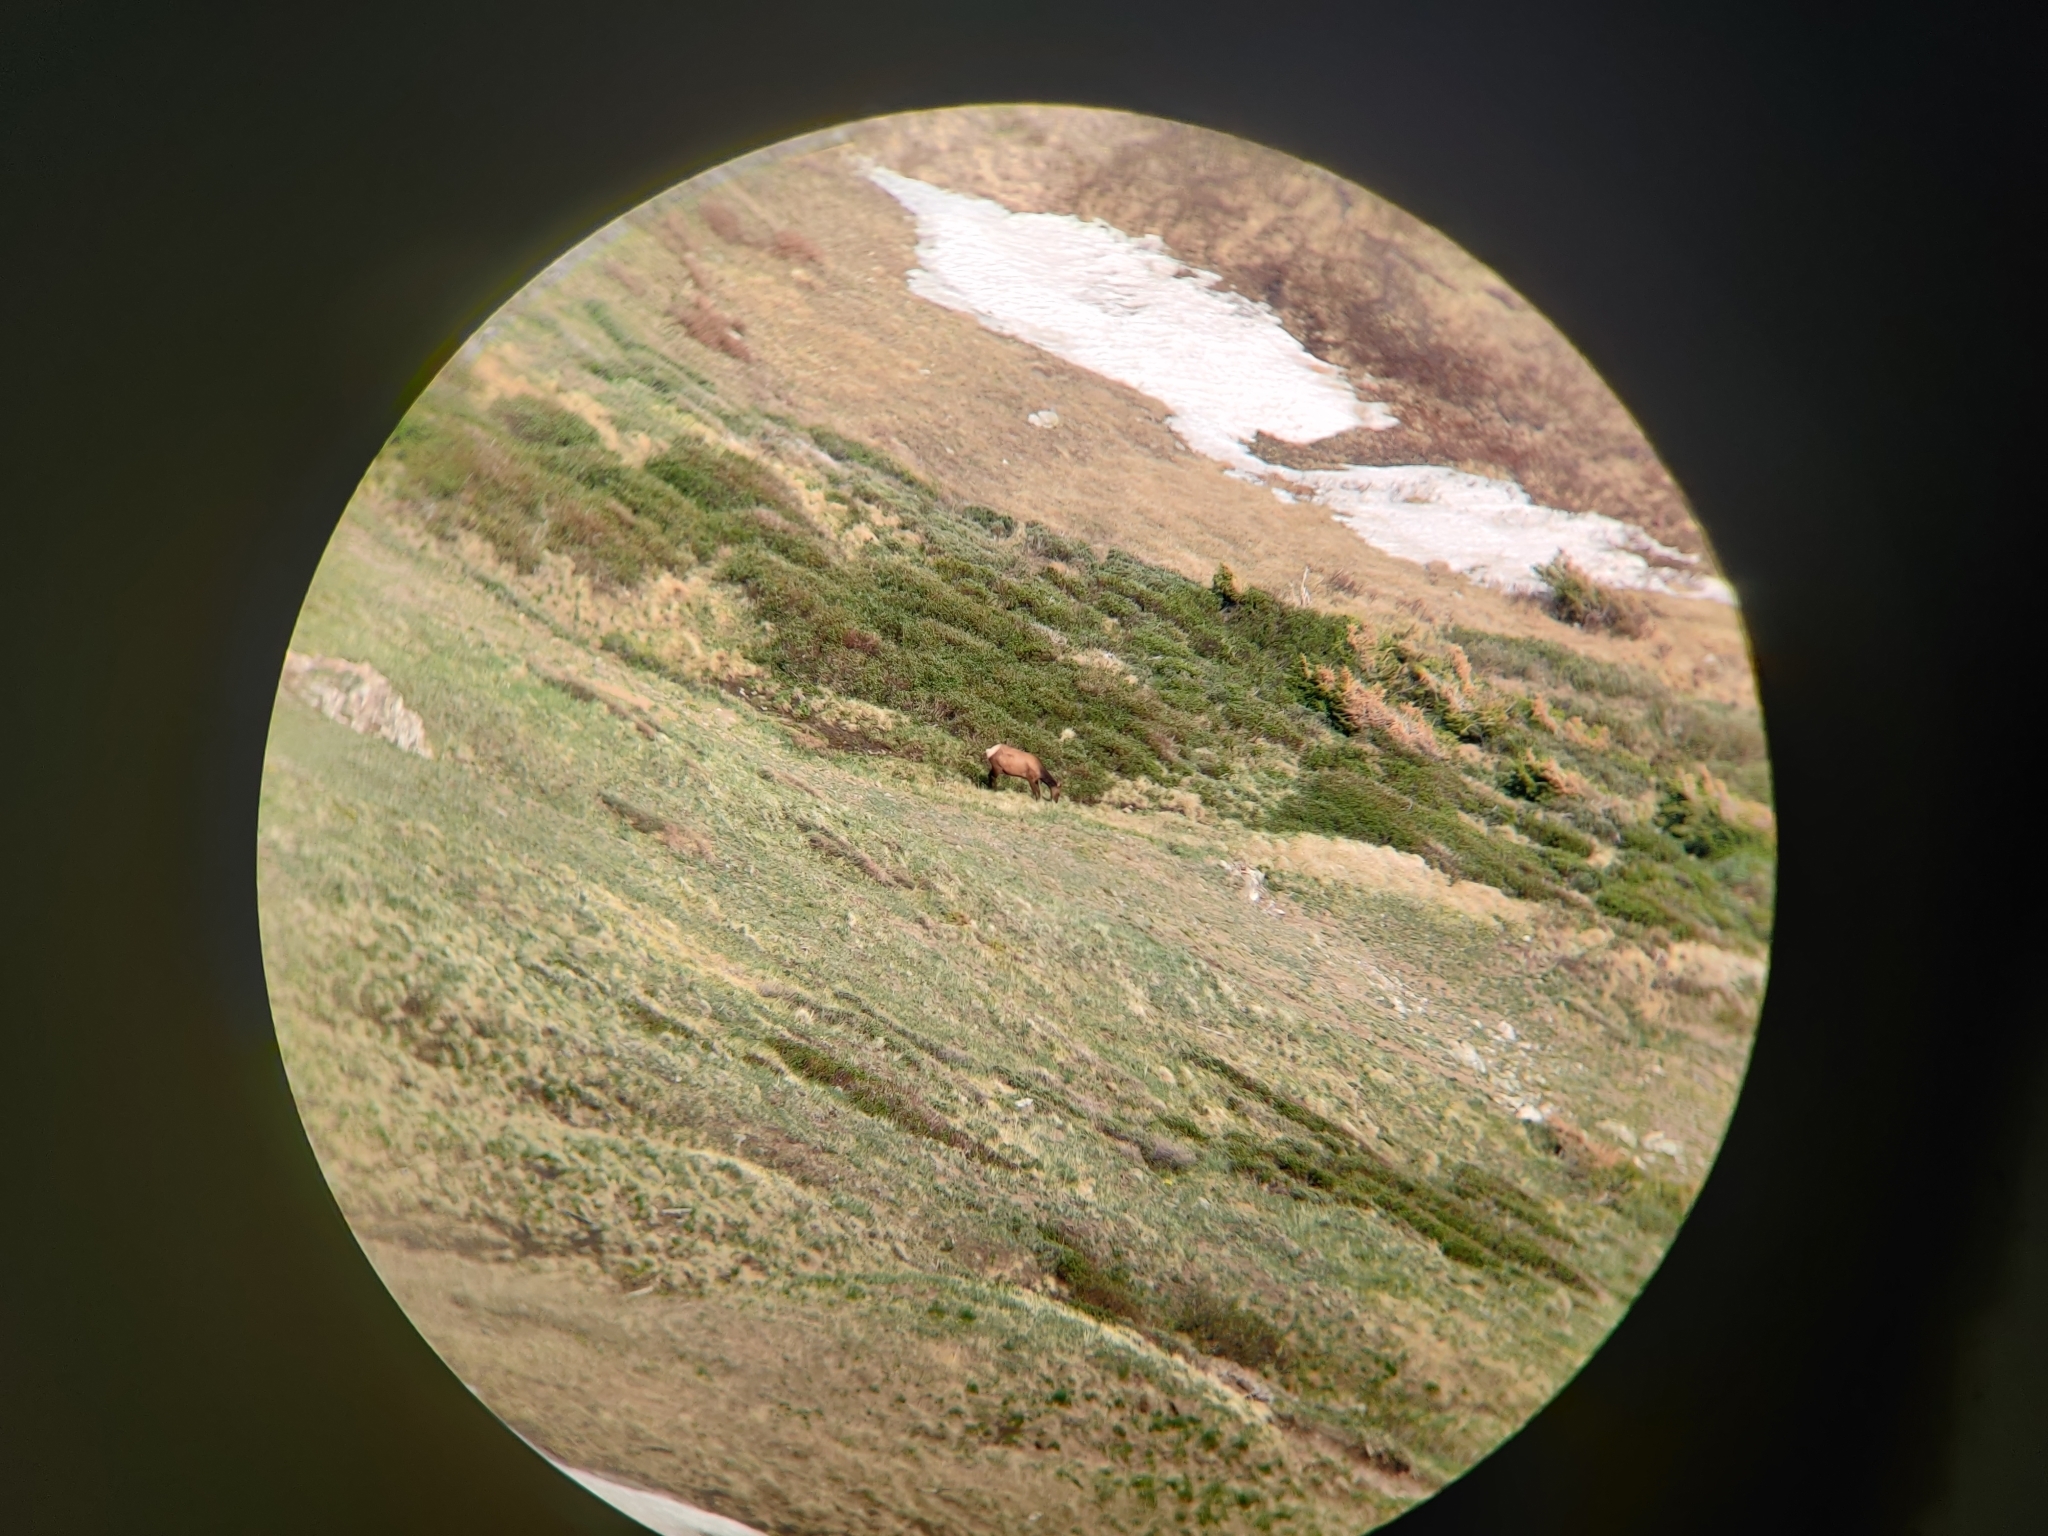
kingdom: Animalia
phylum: Chordata
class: Mammalia
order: Artiodactyla
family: Cervidae
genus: Cervus
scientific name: Cervus elaphus
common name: Red deer
